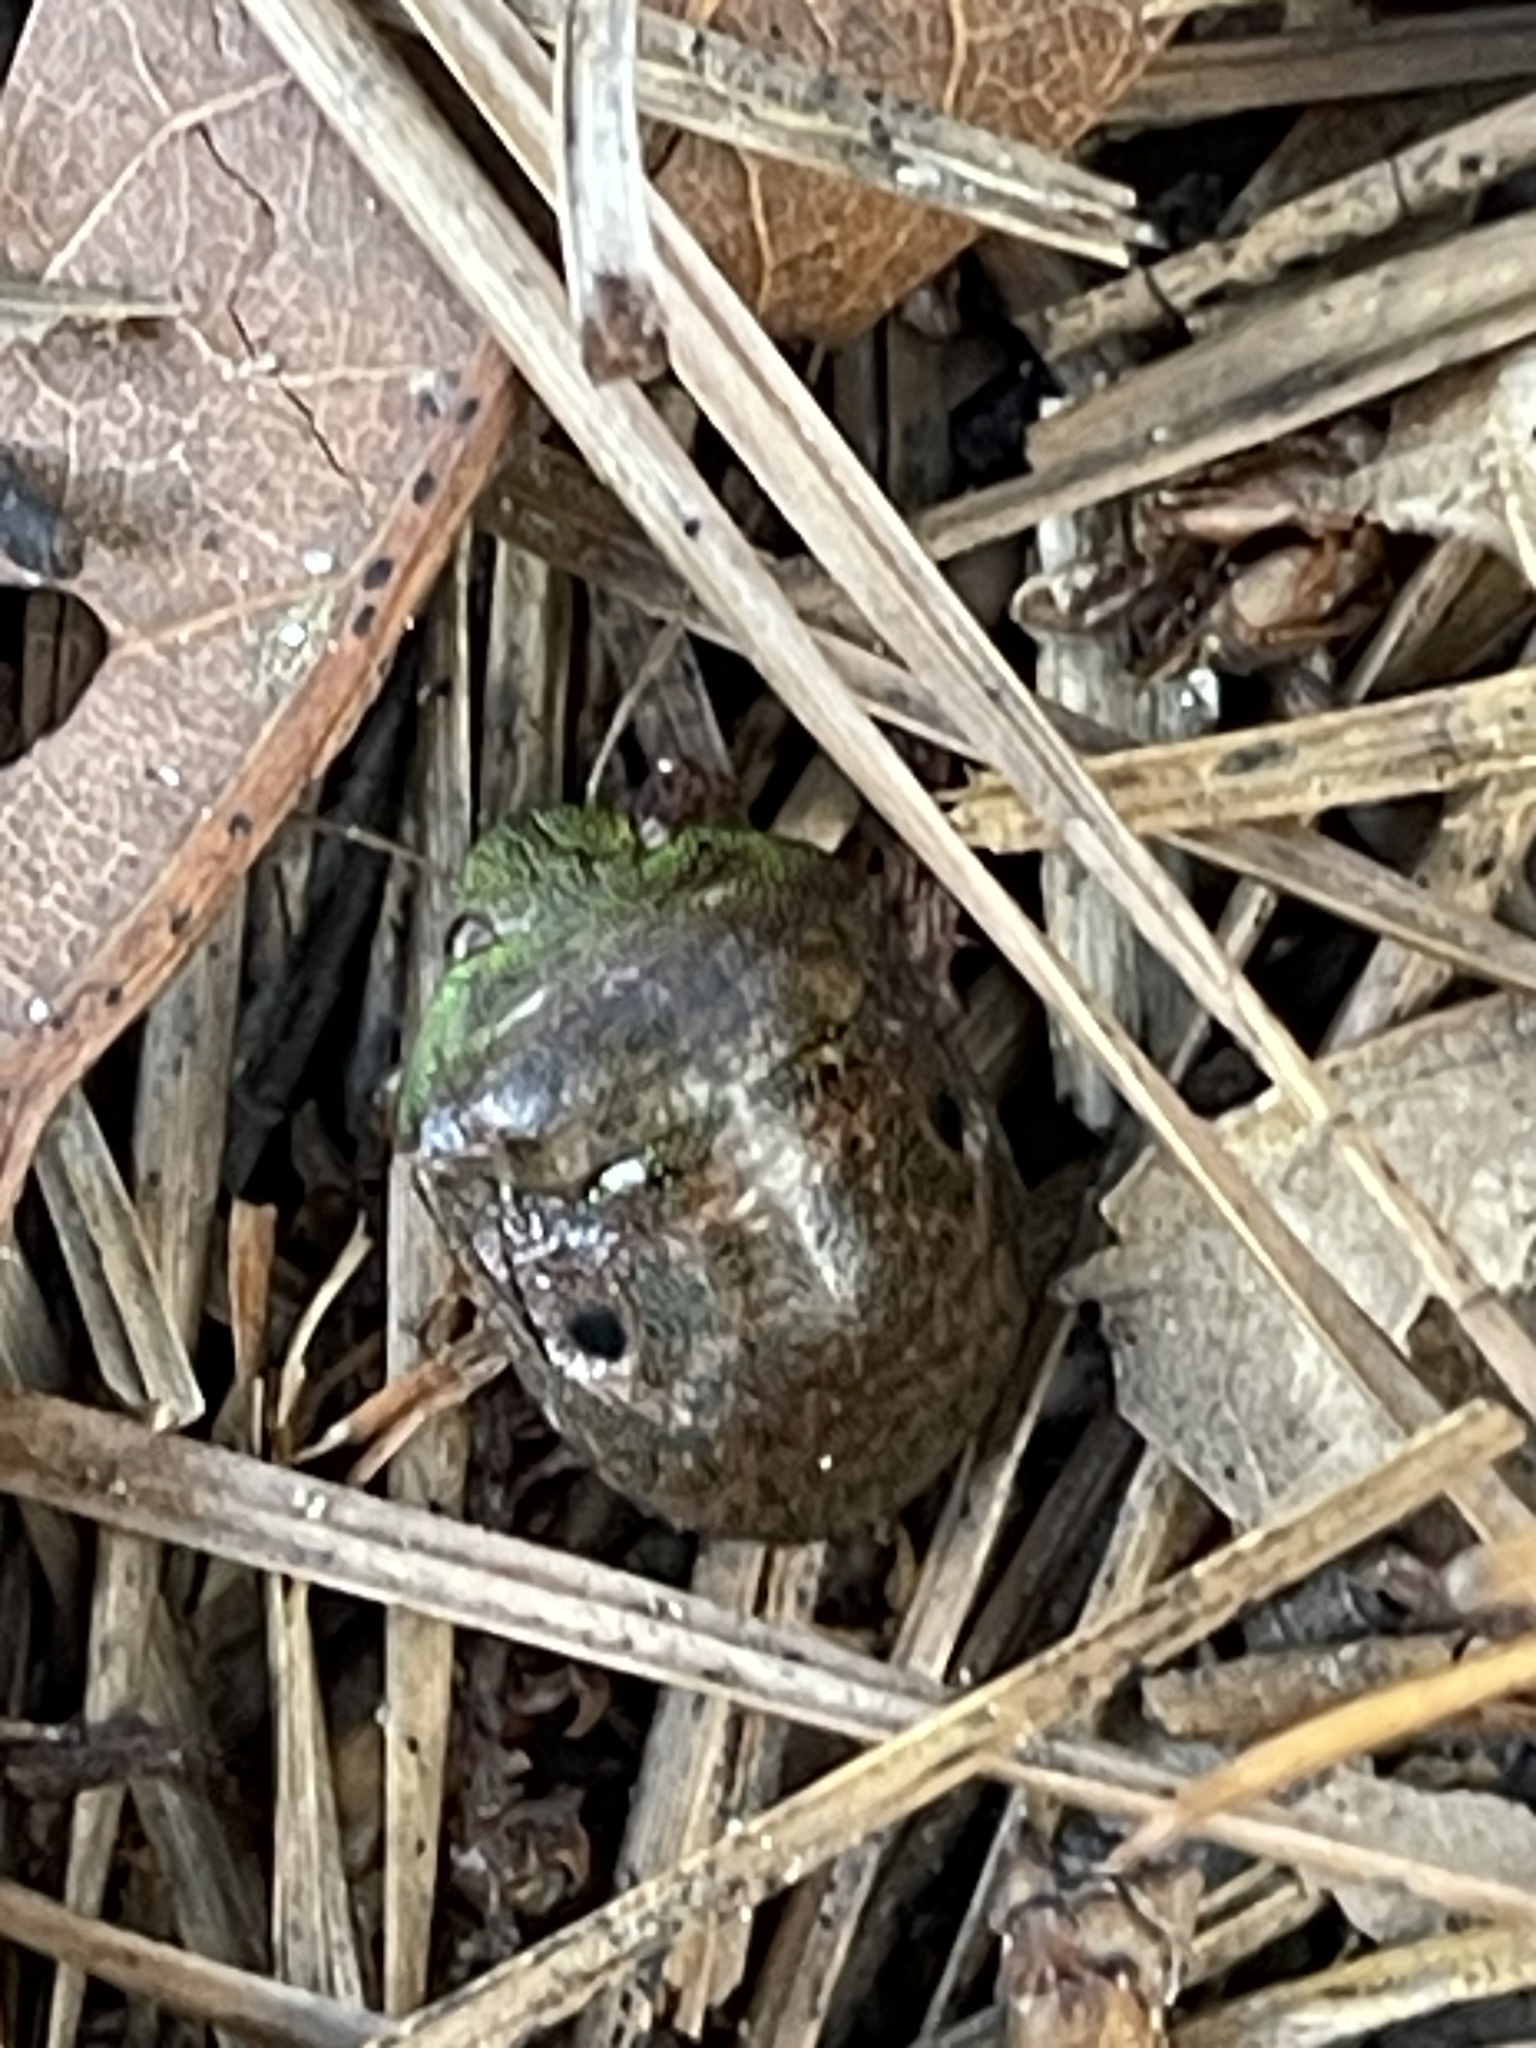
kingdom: Animalia
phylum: Arthropoda
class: Insecta
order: Hemiptera
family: Scutelleridae
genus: Diolcus
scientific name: Diolcus chrysorrhoeus
